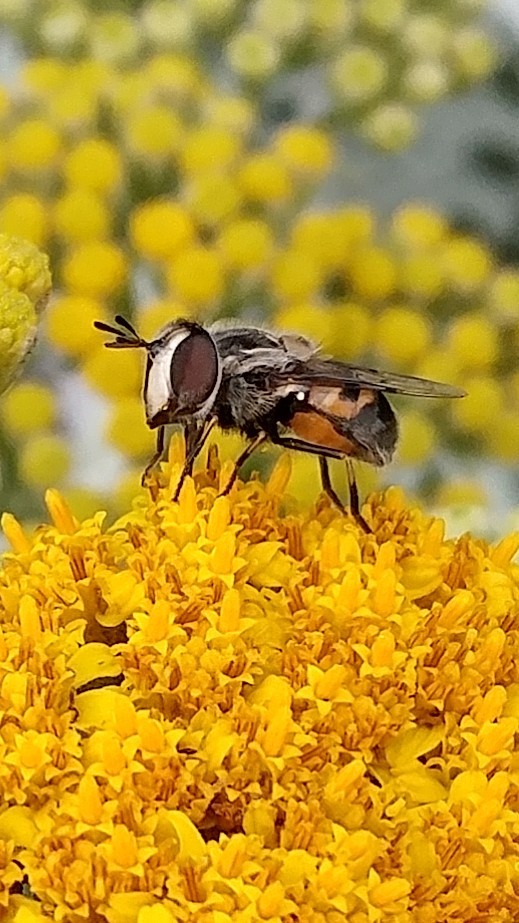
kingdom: Animalia
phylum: Arthropoda
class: Insecta
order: Diptera
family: Syrphidae
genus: Copestylum
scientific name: Copestylum lentum
